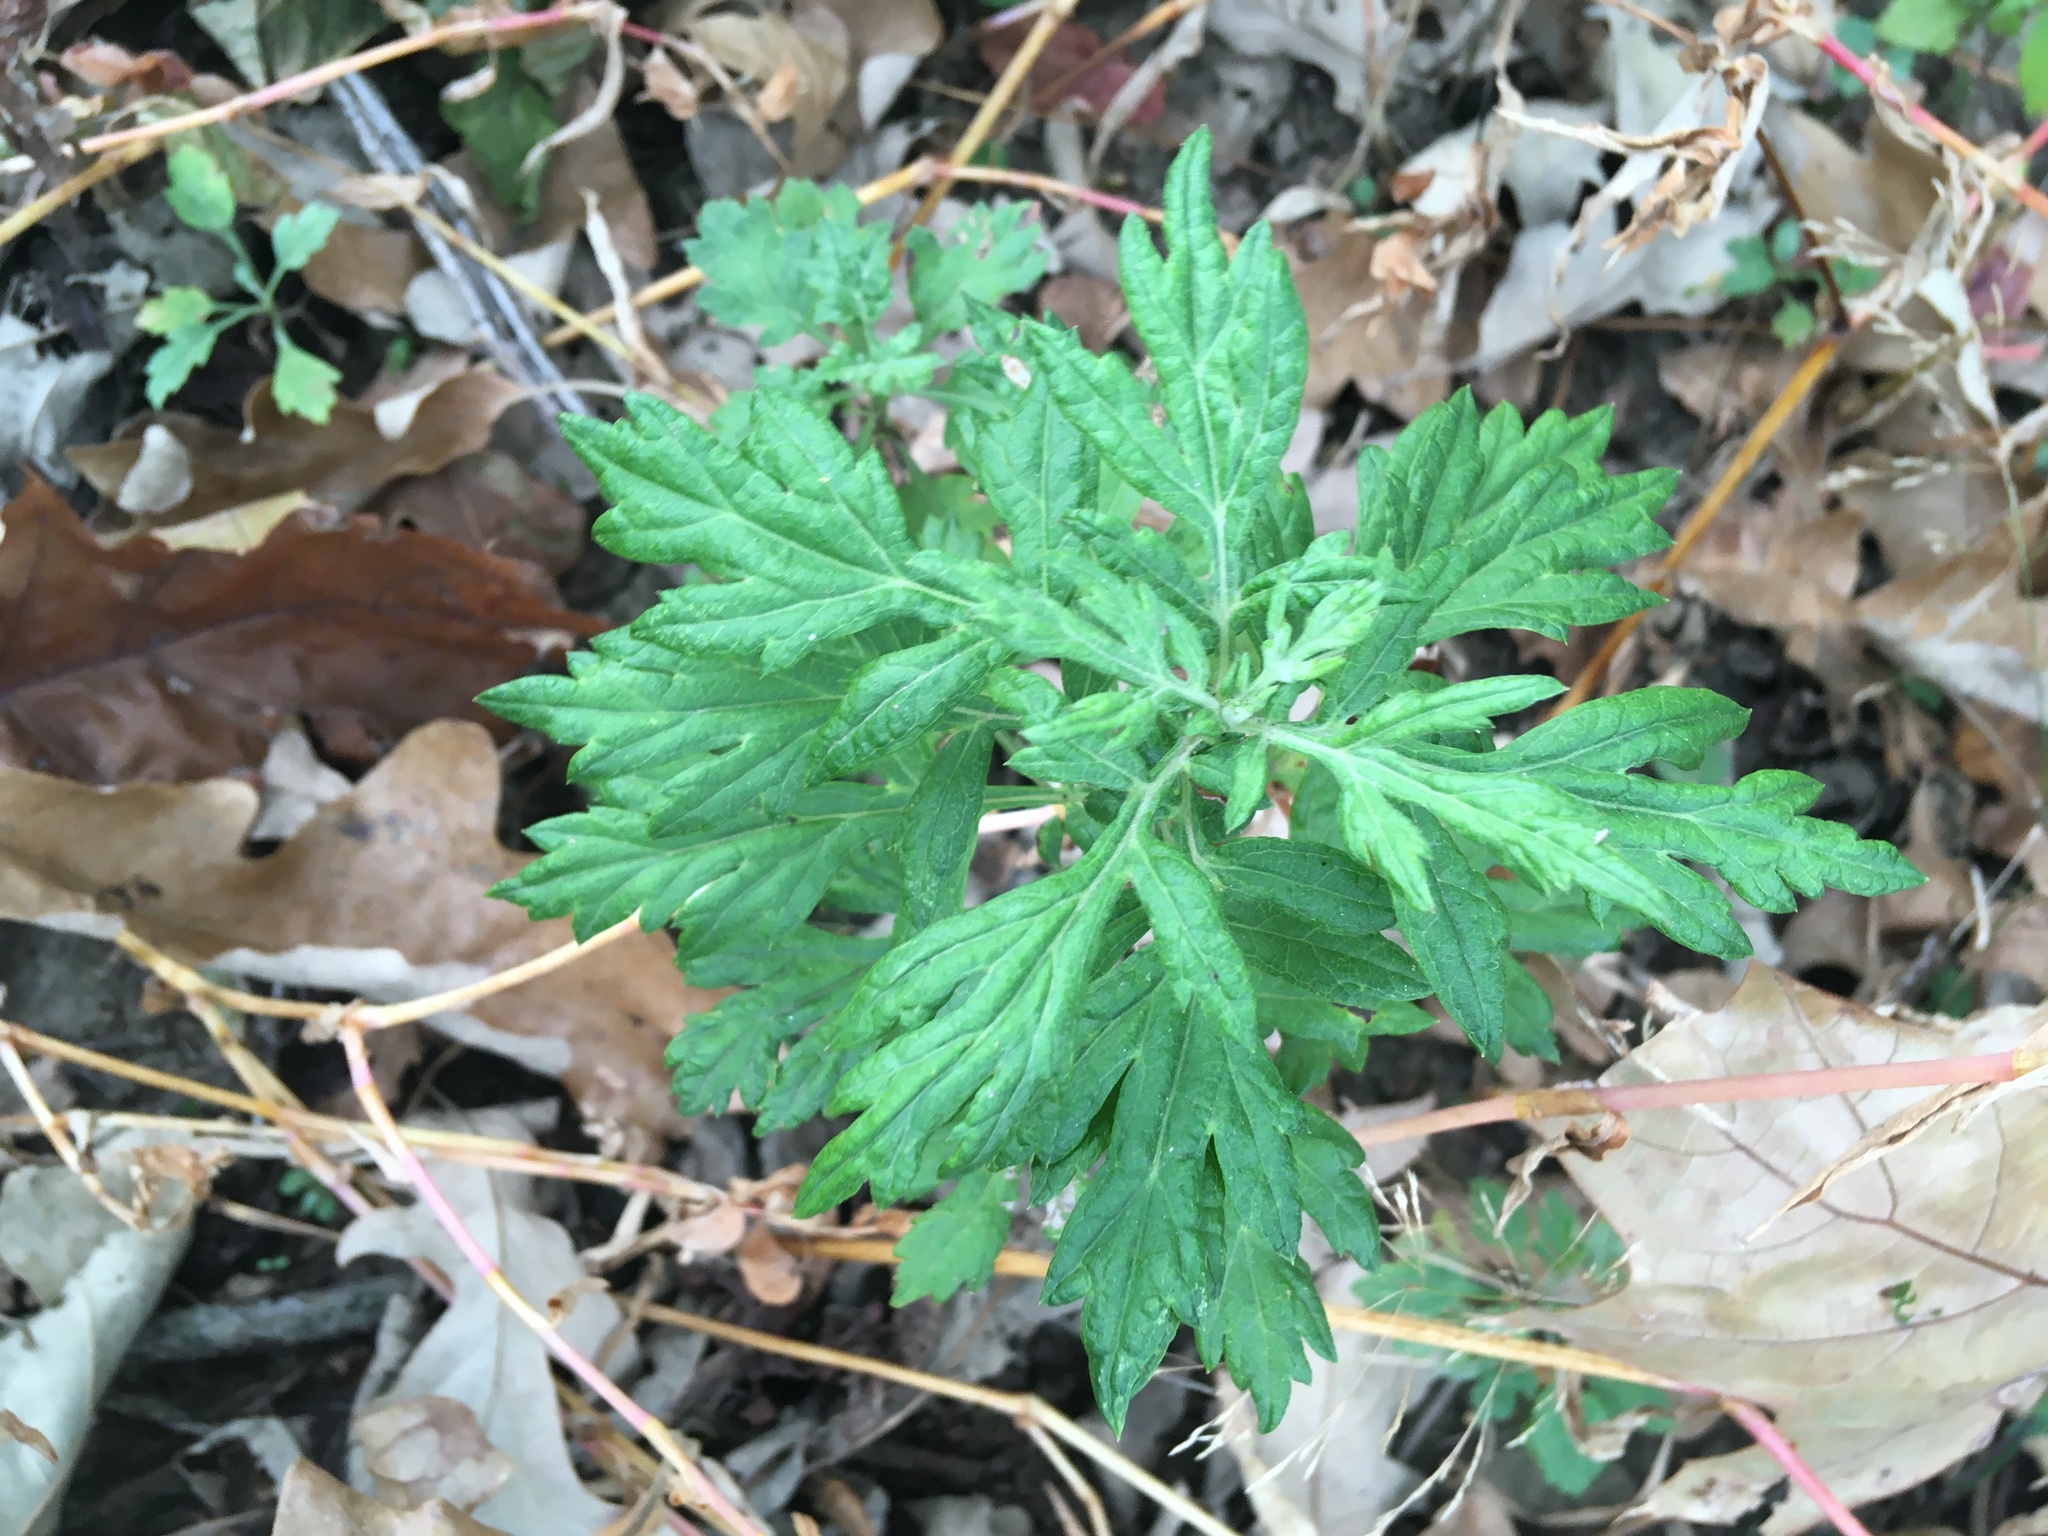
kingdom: Plantae
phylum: Tracheophyta
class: Magnoliopsida
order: Asterales
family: Asteraceae
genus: Artemisia
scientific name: Artemisia vulgaris
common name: Mugwort
